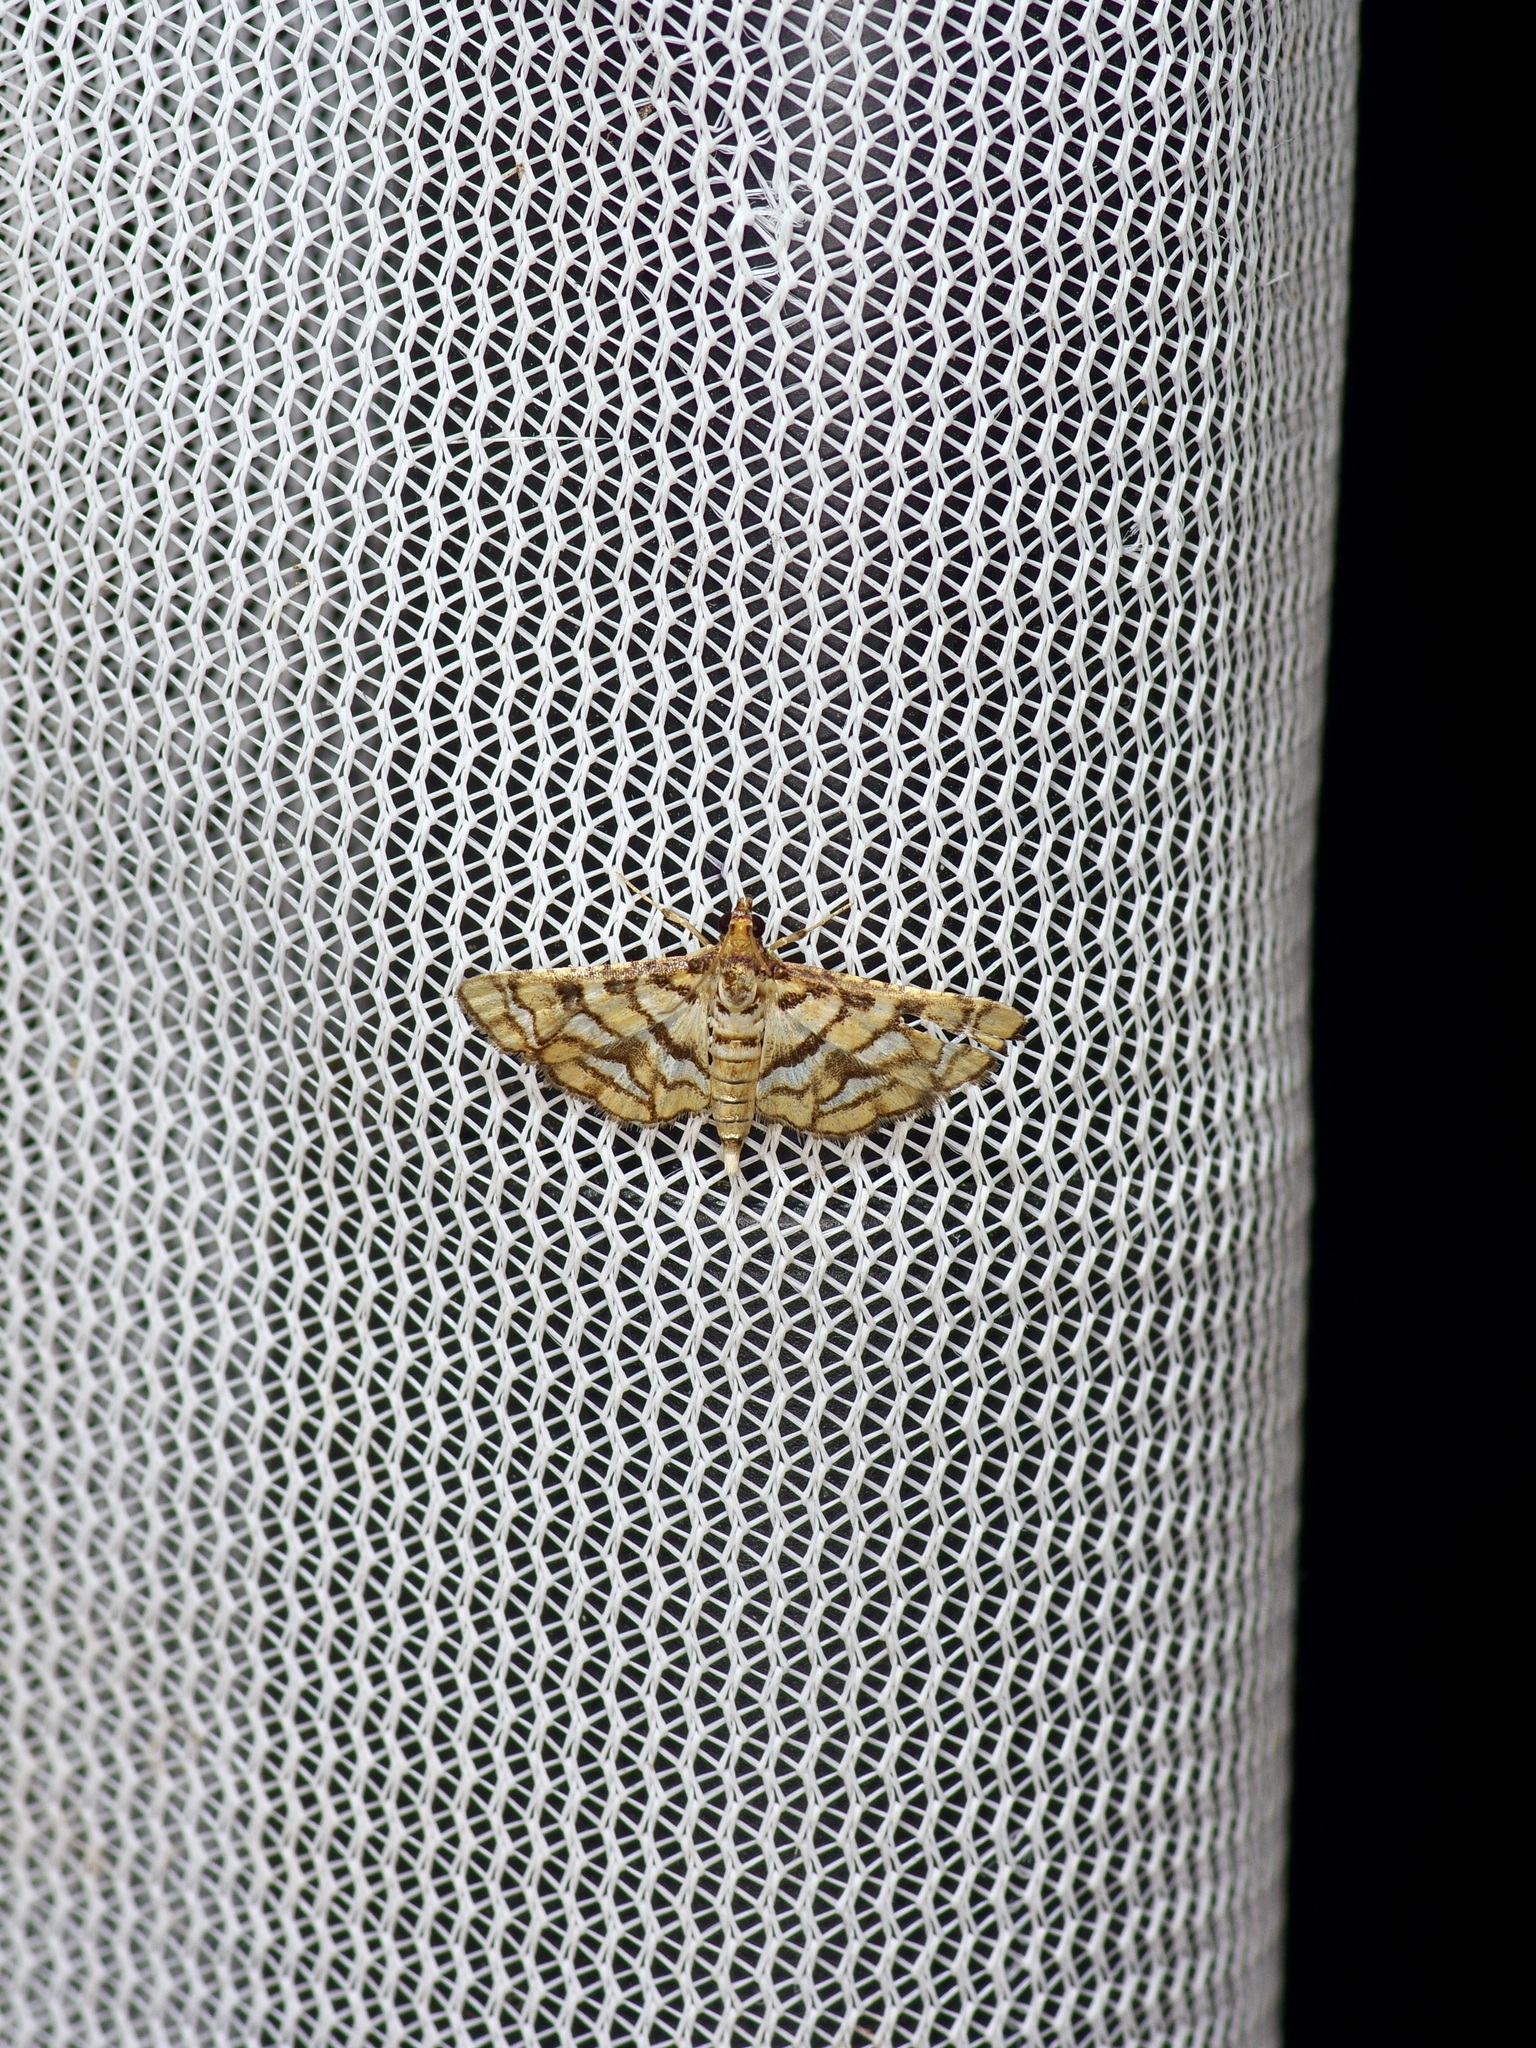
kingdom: Animalia
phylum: Arthropoda
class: Insecta
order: Lepidoptera
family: Crambidae
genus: Hileithia
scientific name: Hileithia magualis
